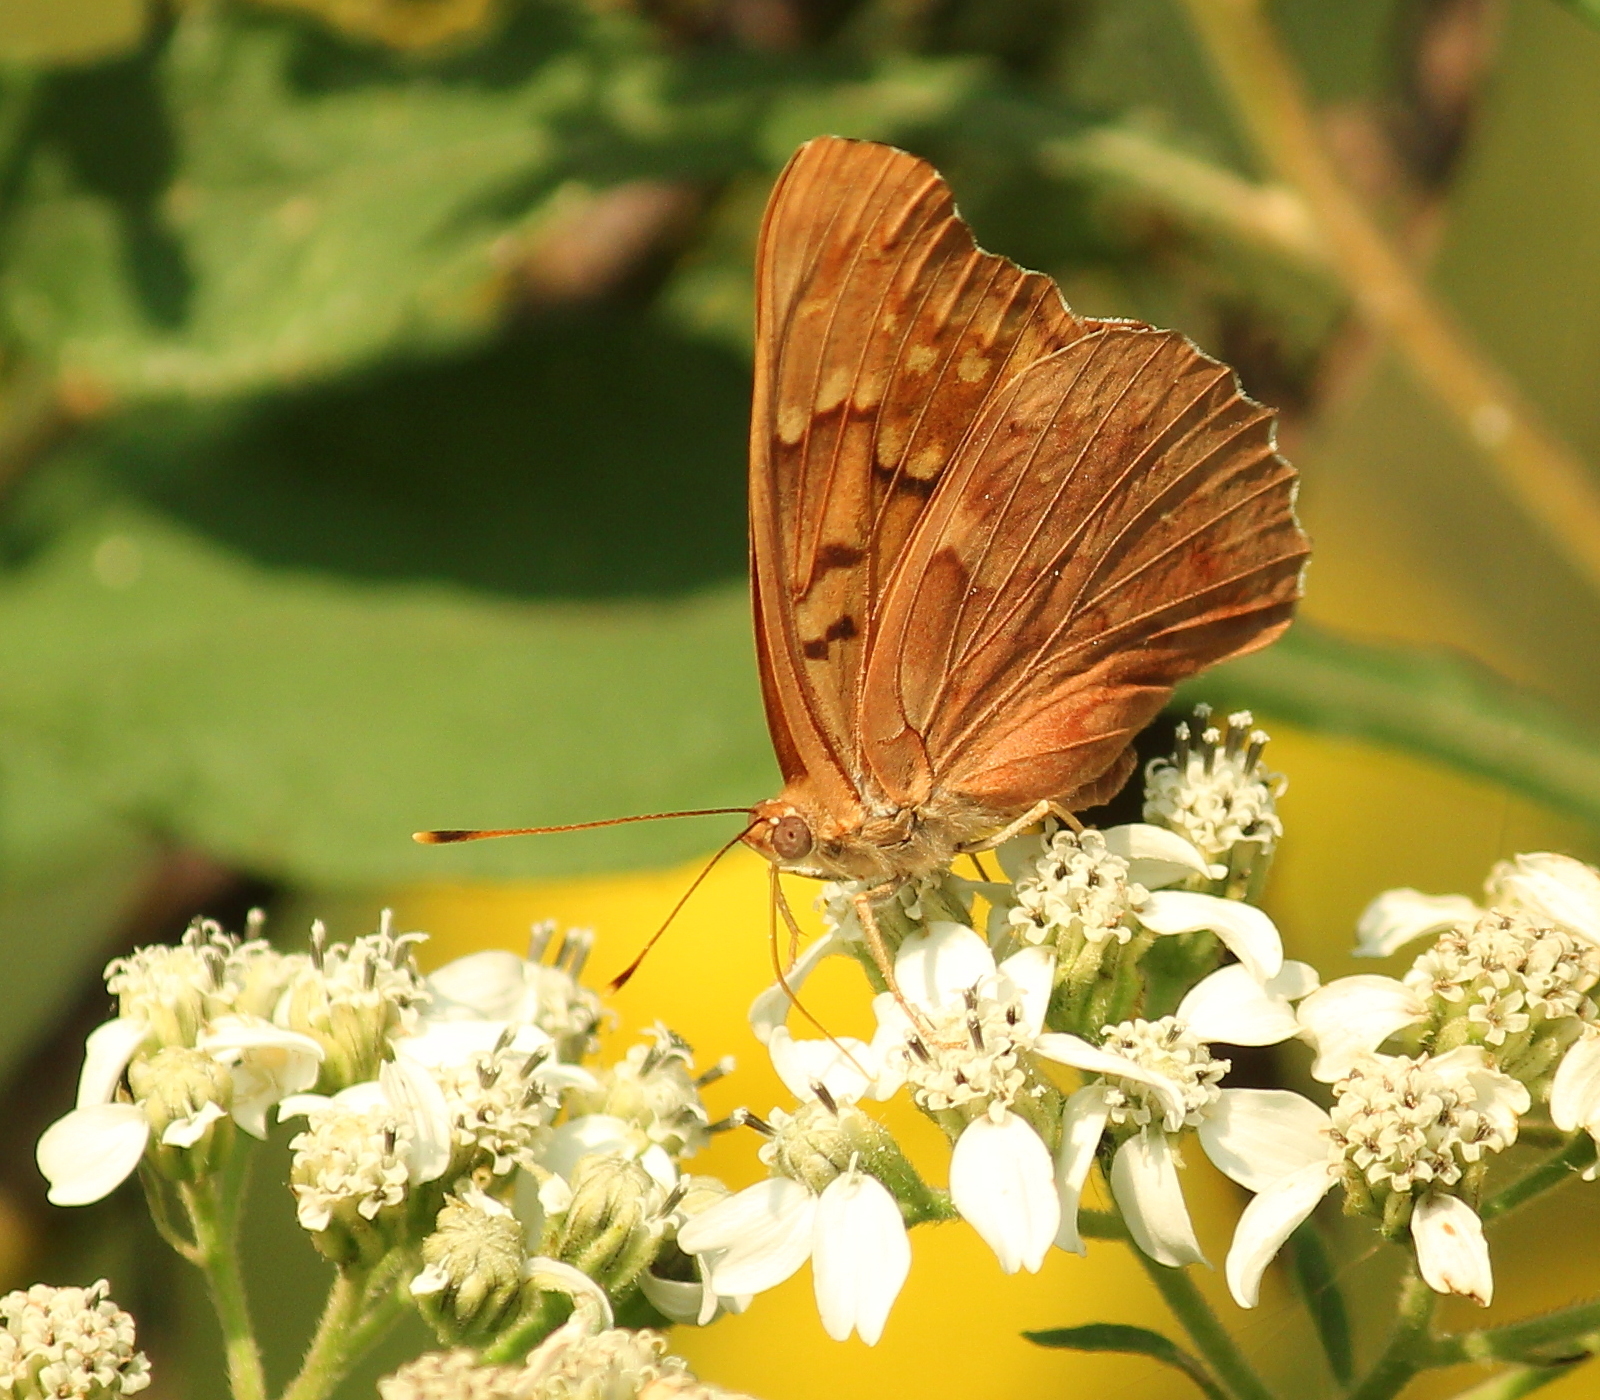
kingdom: Animalia
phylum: Arthropoda
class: Insecta
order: Lepidoptera
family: Nymphalidae
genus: Asterocampa
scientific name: Asterocampa clyton
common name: Tawny emperor
